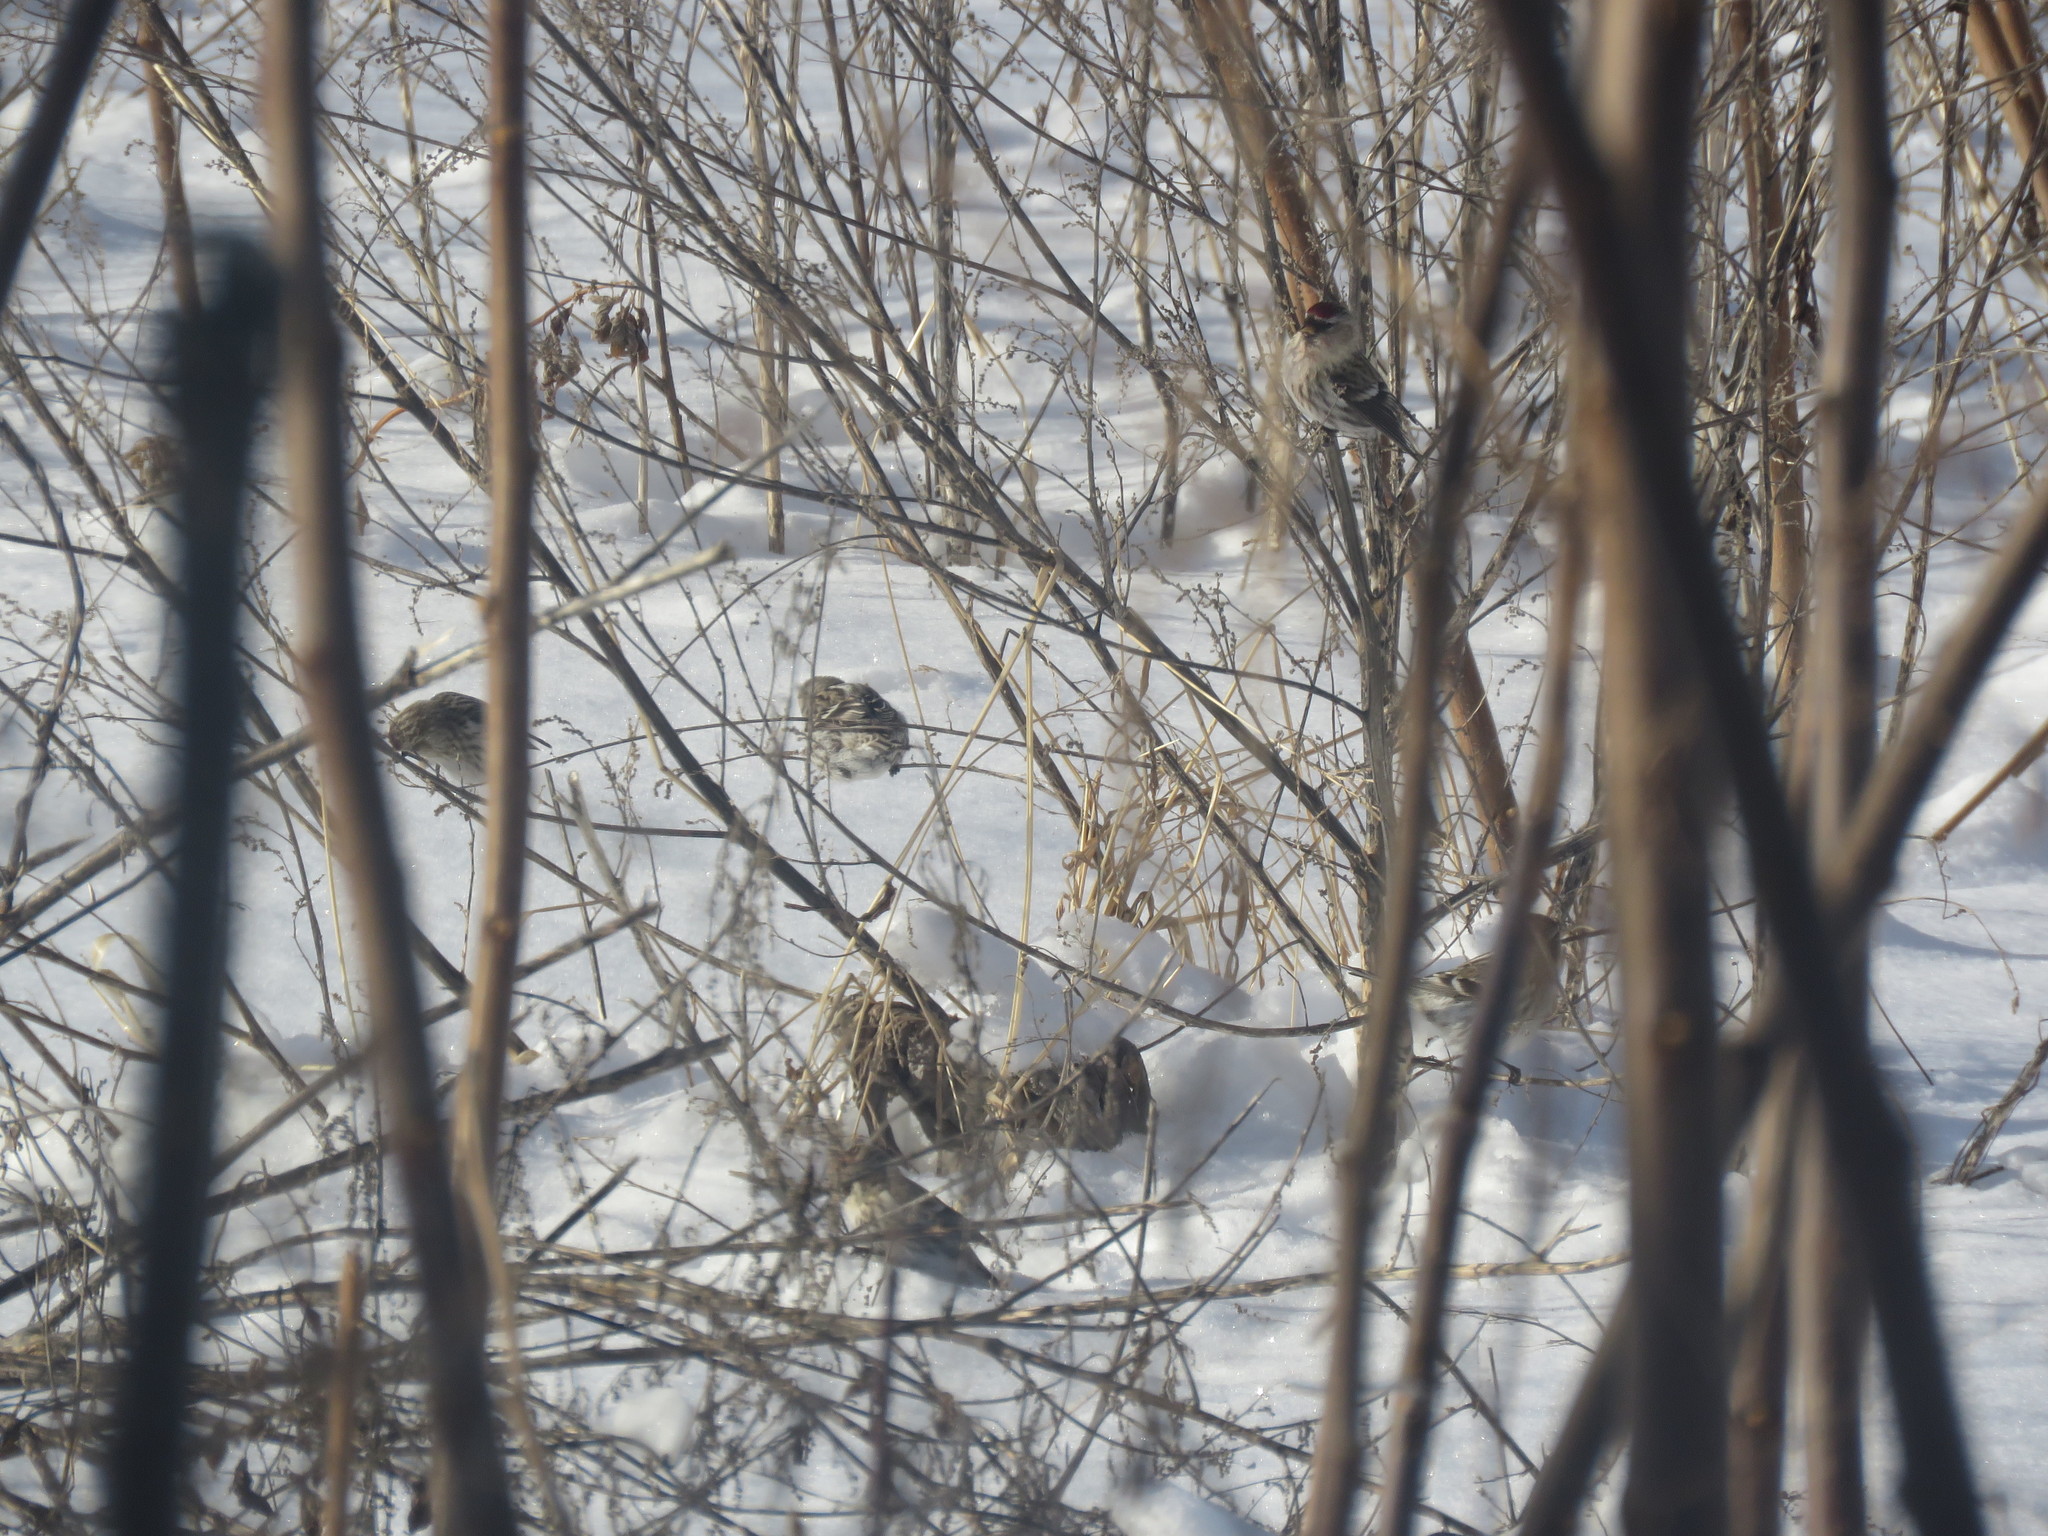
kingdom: Animalia
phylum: Chordata
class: Aves
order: Passeriformes
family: Fringillidae
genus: Acanthis
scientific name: Acanthis flammea
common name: Common redpoll
